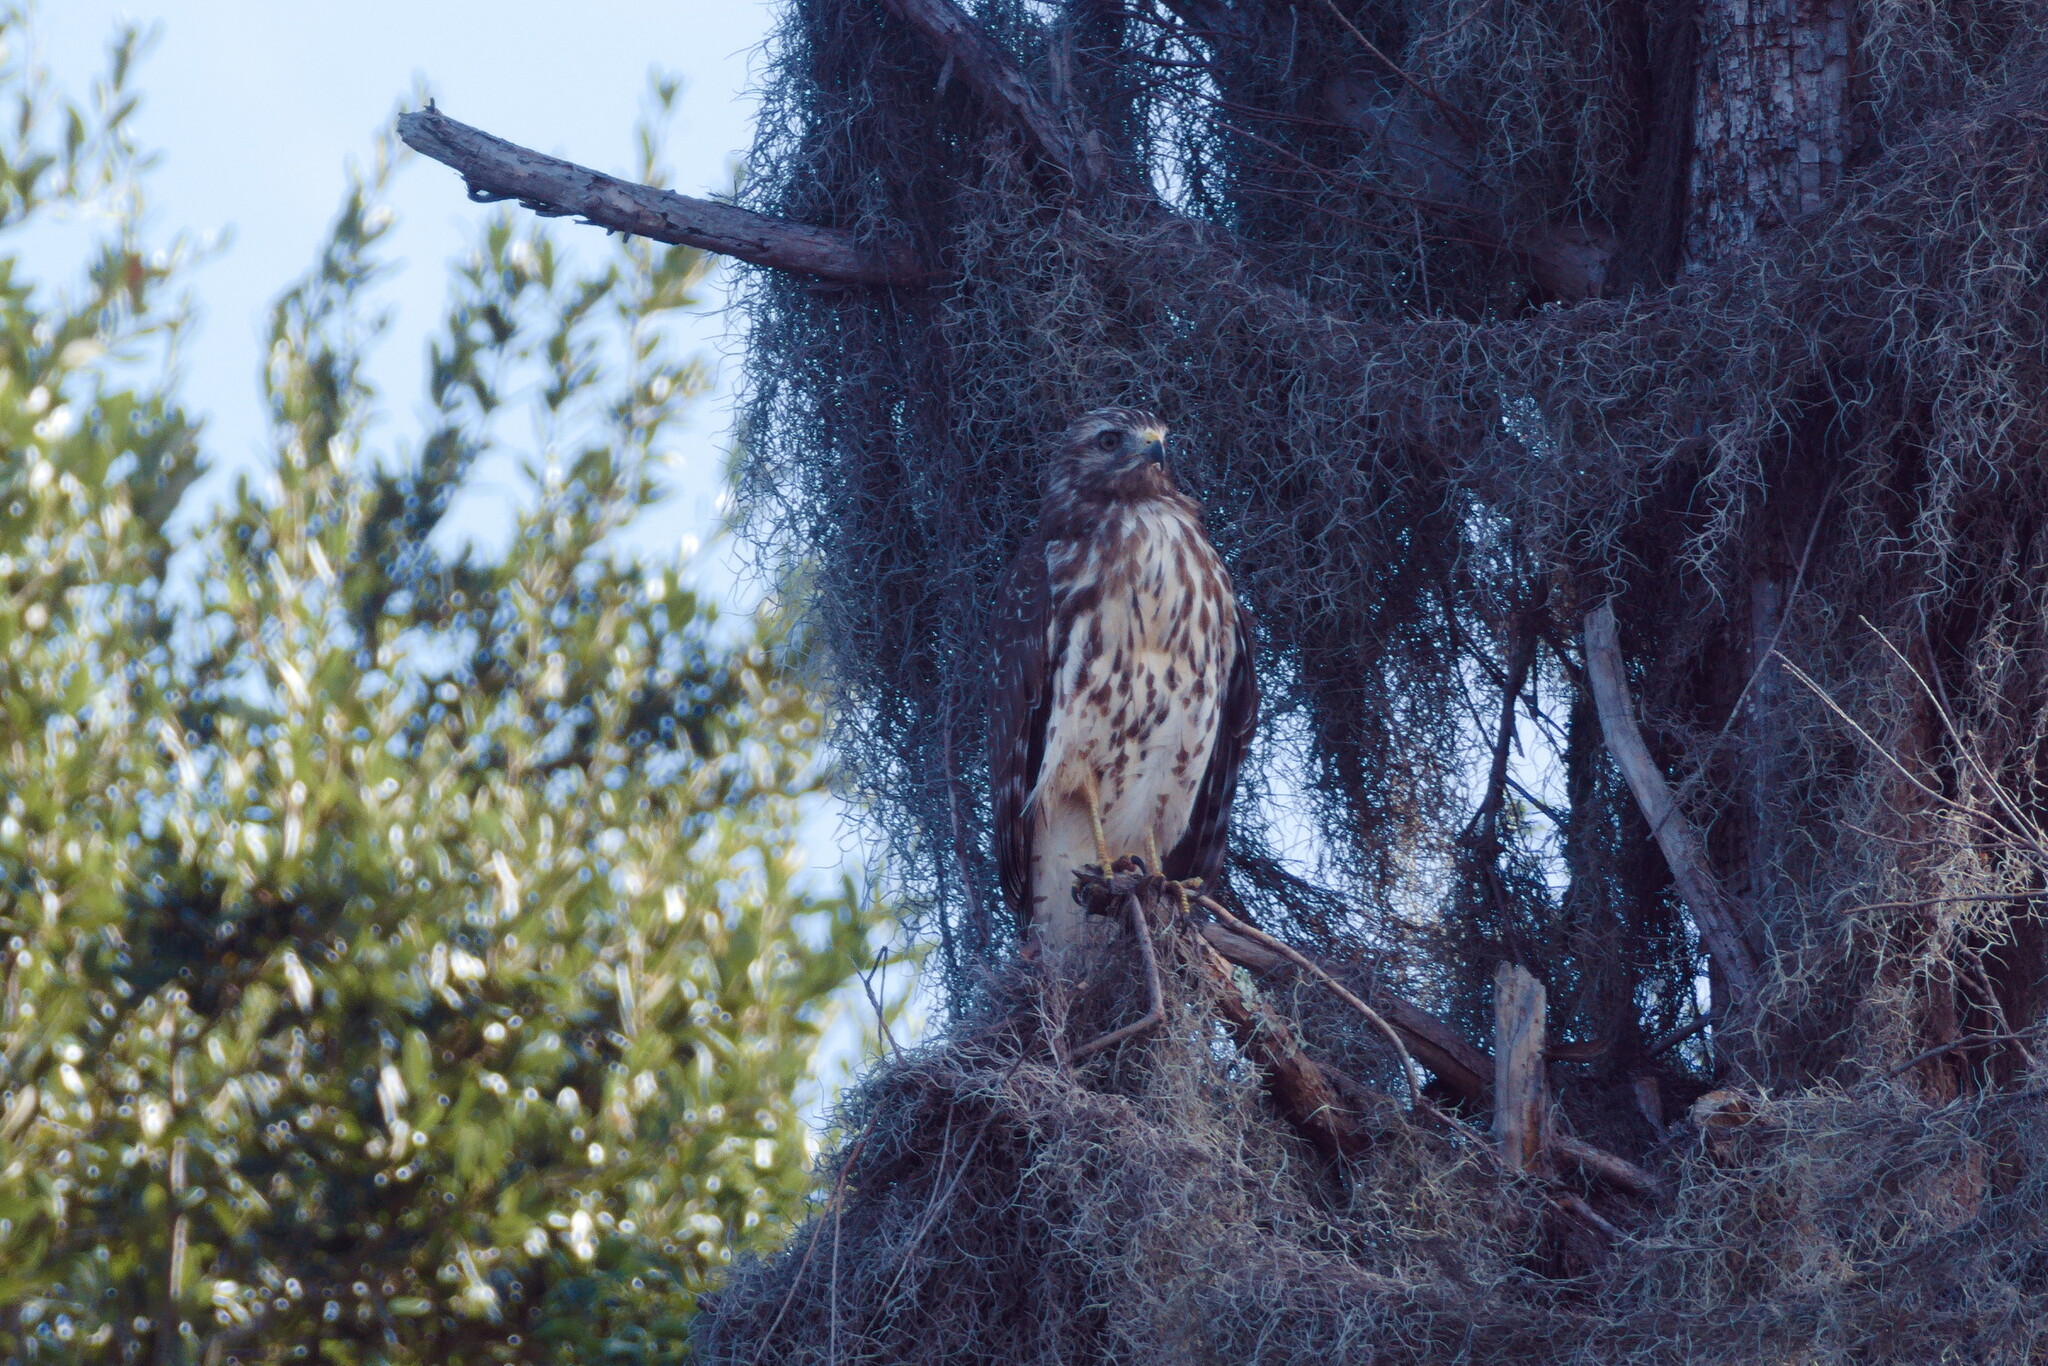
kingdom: Animalia
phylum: Chordata
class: Aves
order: Accipitriformes
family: Accipitridae
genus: Buteo
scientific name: Buteo lineatus
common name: Red-shouldered hawk
